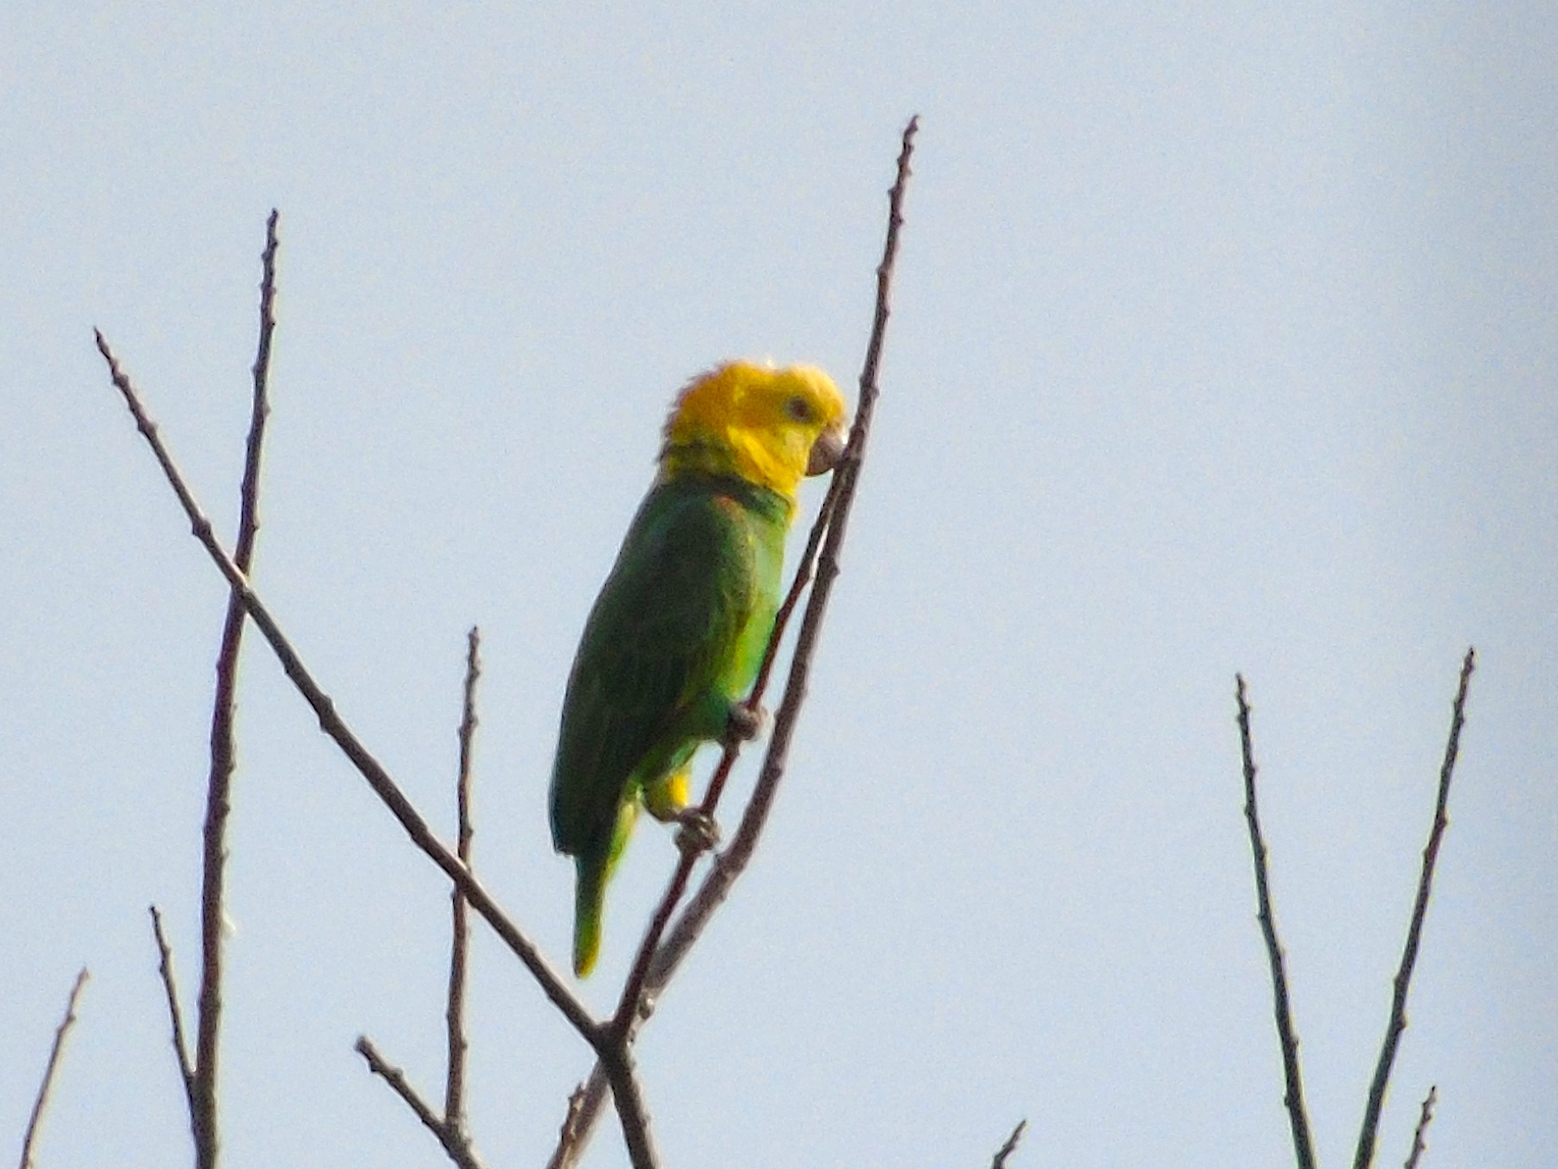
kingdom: Animalia
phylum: Chordata
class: Aves
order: Psittaciformes
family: Psittacidae
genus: Amazona
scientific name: Amazona oratrix
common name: Yellow-headed amazon
